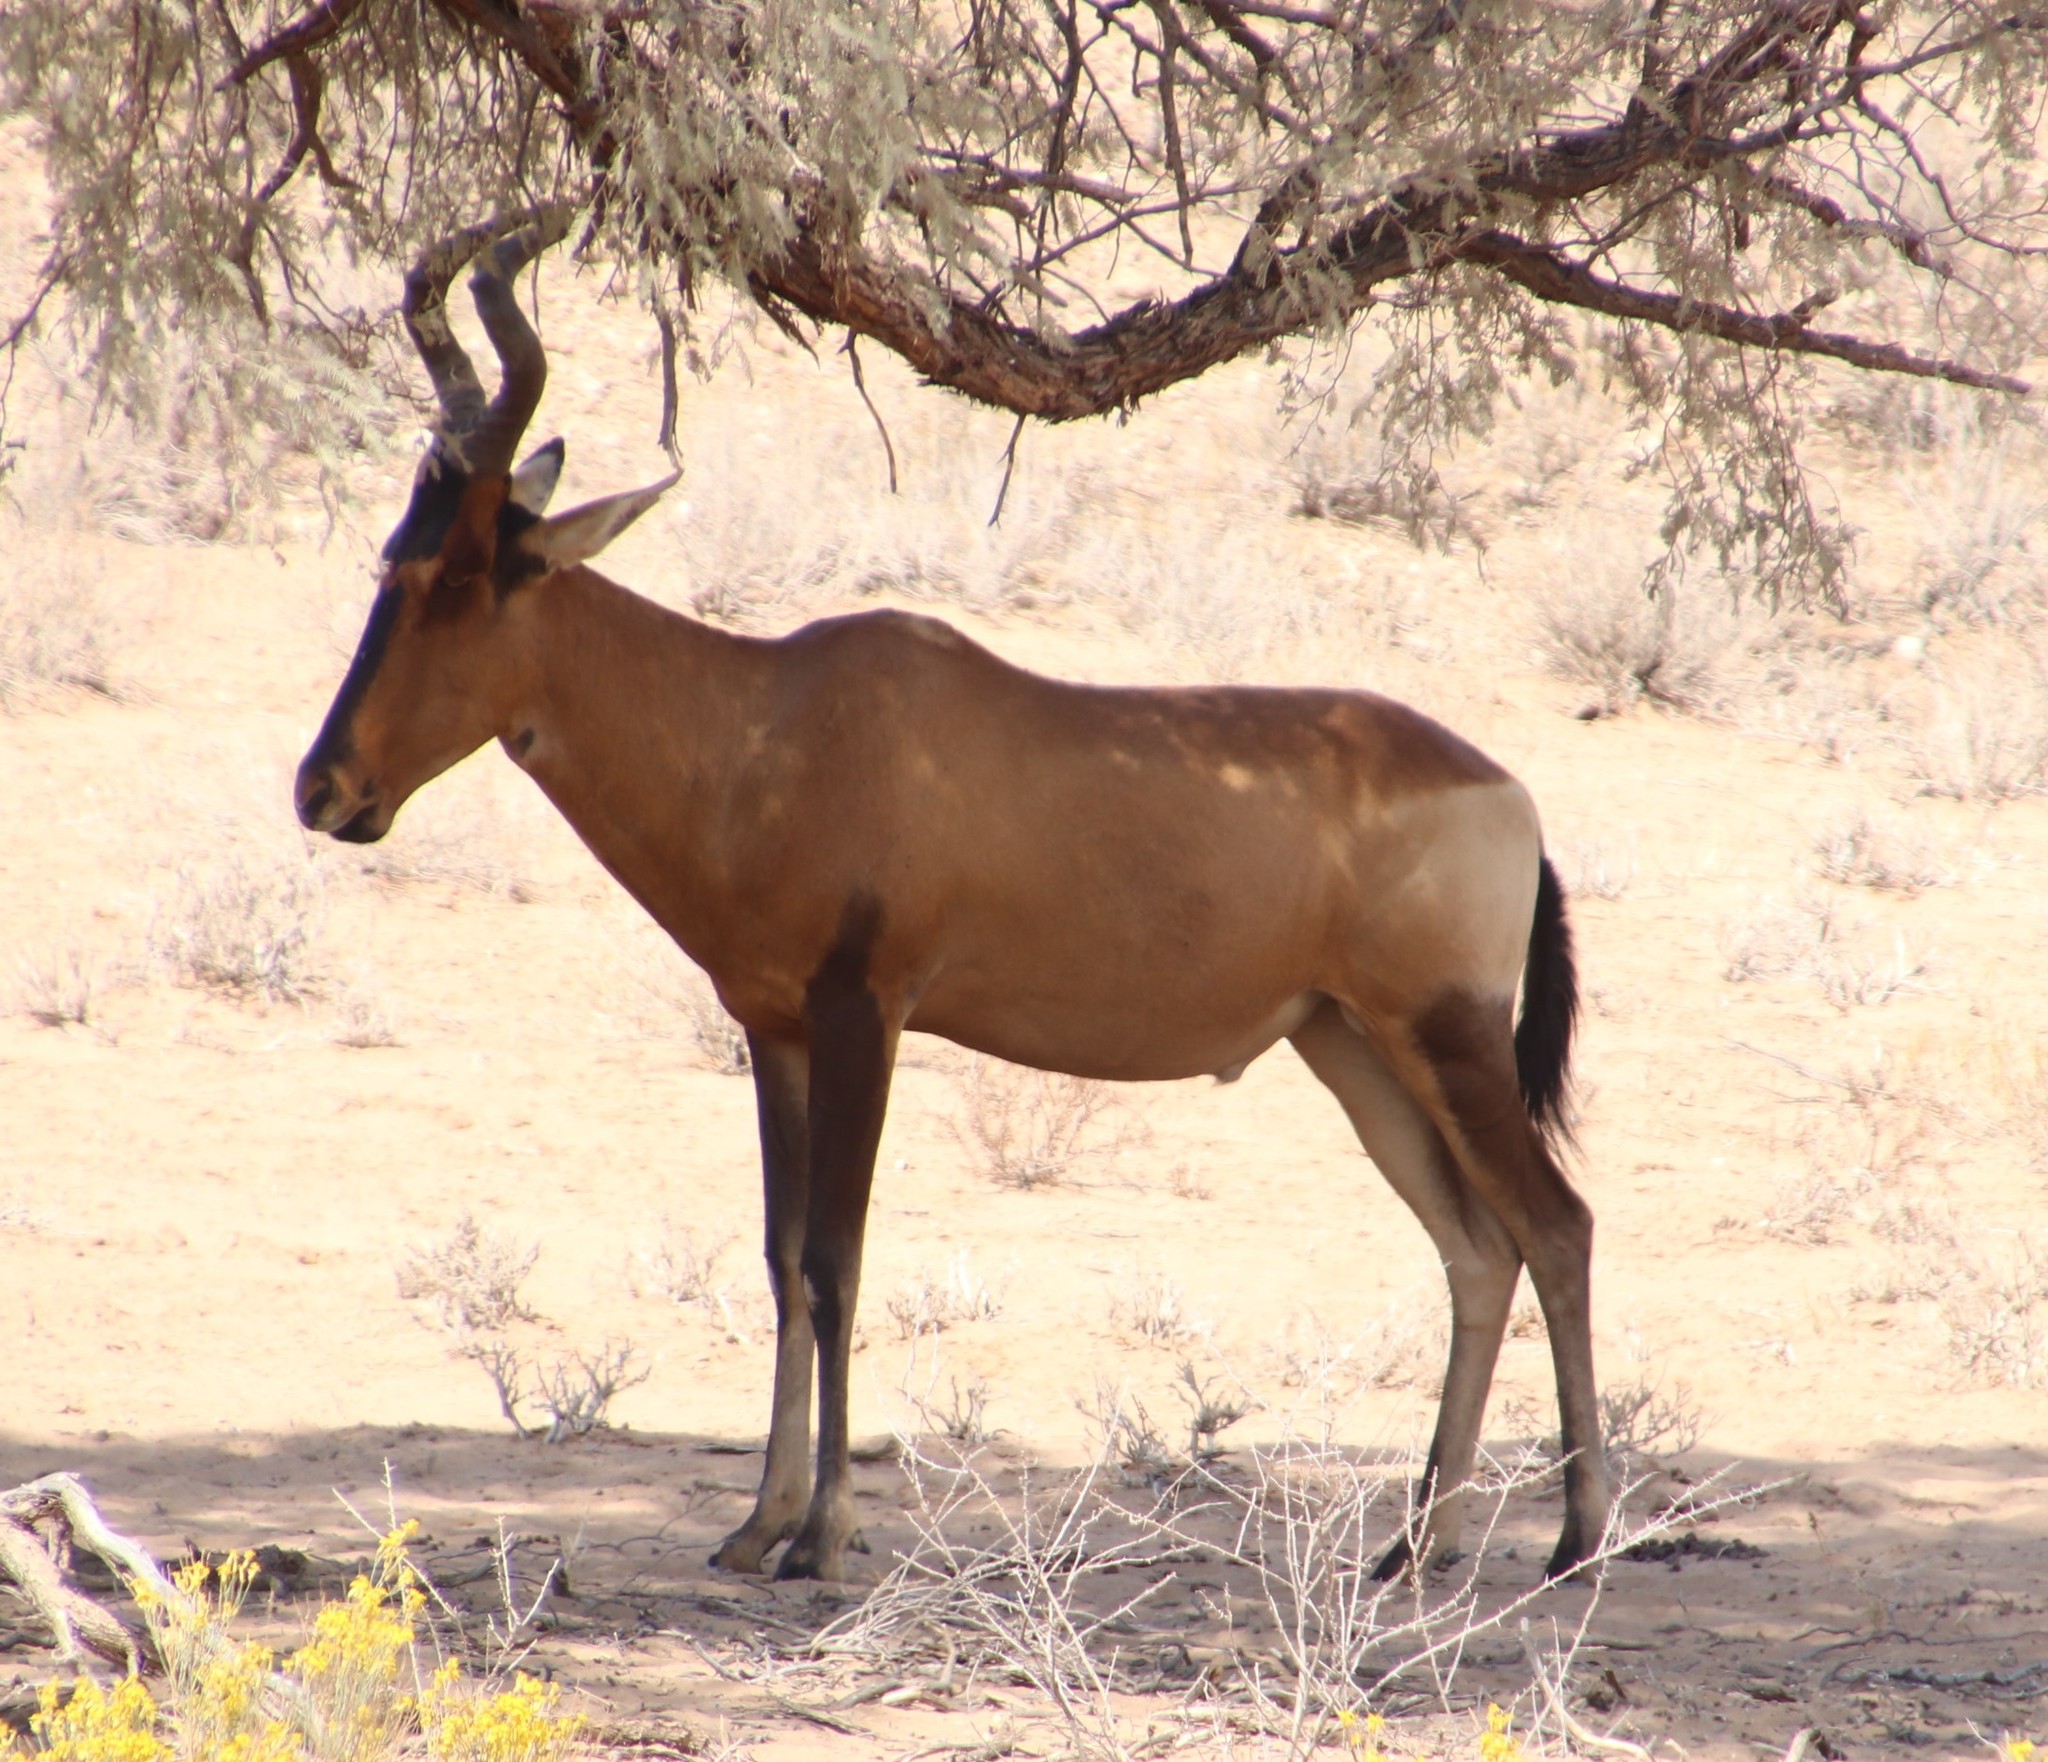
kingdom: Animalia
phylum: Chordata
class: Mammalia
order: Artiodactyla
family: Bovidae
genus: Alcelaphus
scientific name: Alcelaphus caama
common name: Red hartebeest
